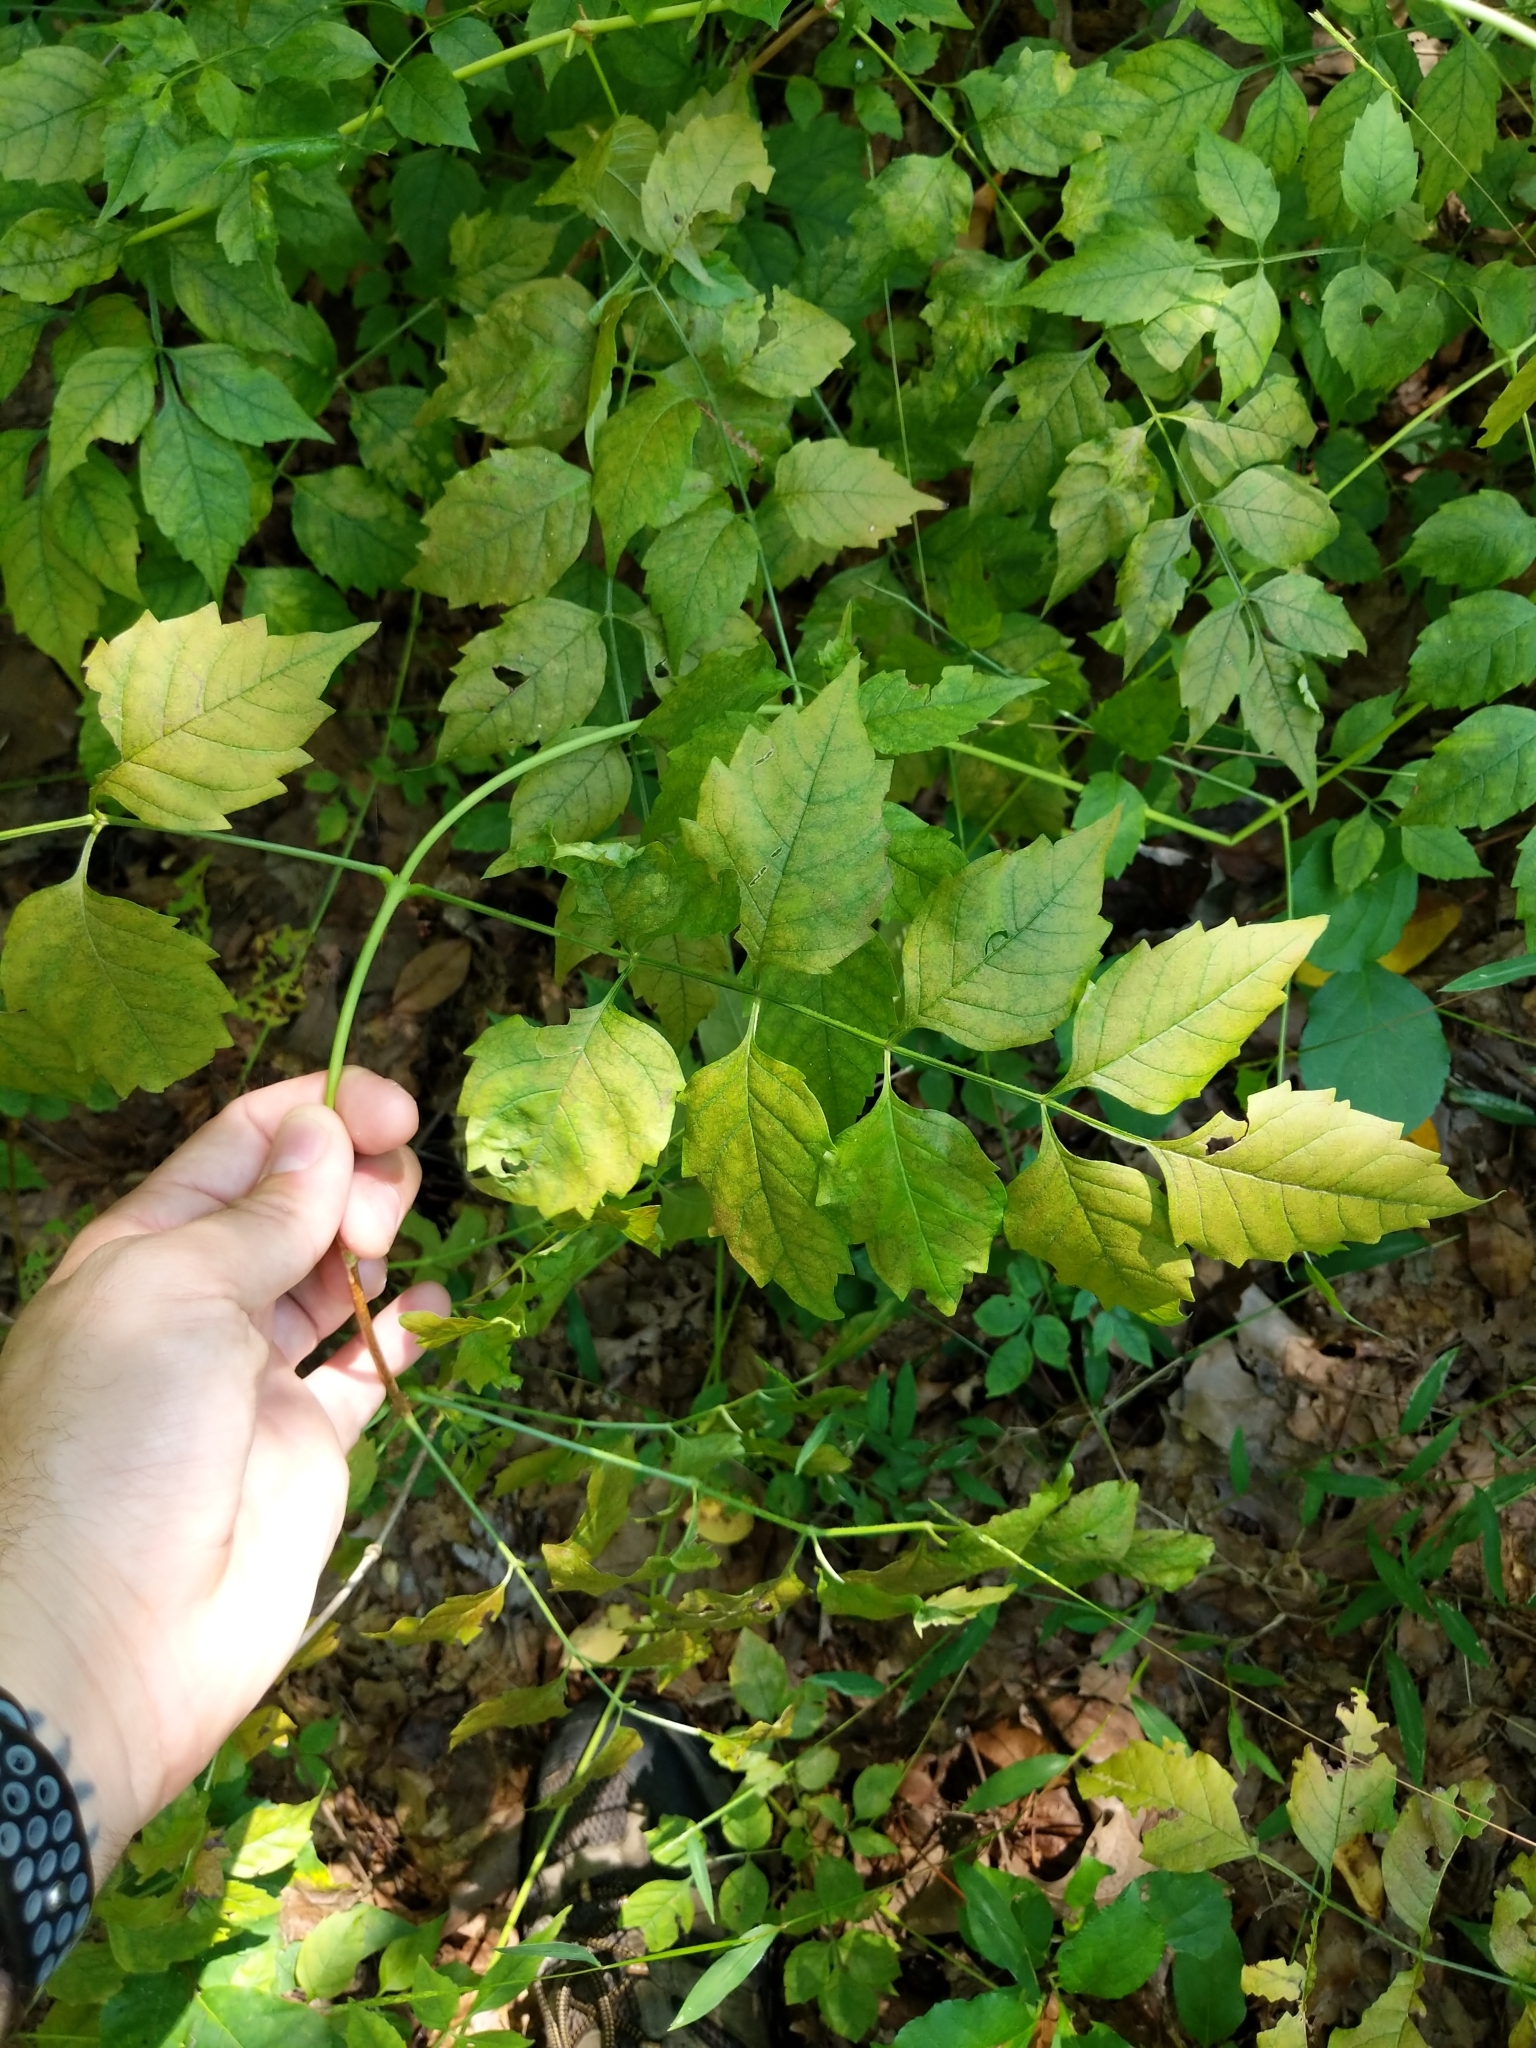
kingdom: Plantae
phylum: Tracheophyta
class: Magnoliopsida
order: Lamiales
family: Bignoniaceae
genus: Campsis
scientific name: Campsis radicans
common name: Trumpet-creeper
